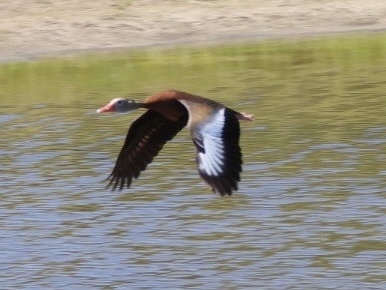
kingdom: Animalia
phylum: Chordata
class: Aves
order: Anseriformes
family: Anatidae
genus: Dendrocygna
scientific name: Dendrocygna autumnalis
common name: Black-bellied whistling duck
